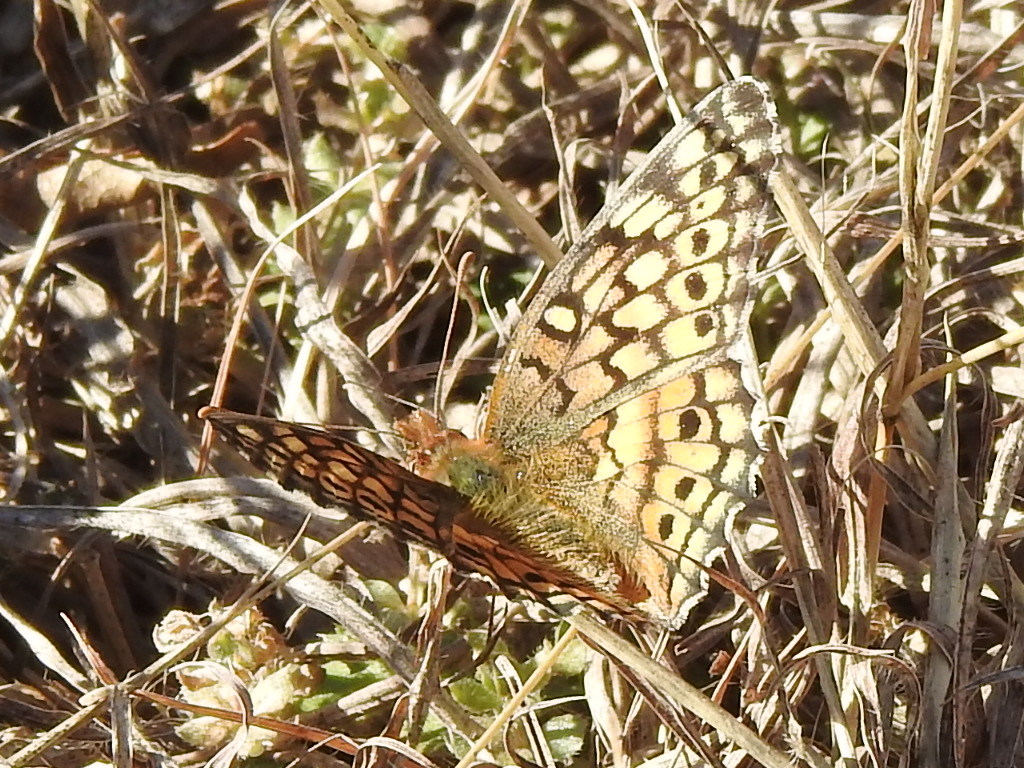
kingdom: Animalia
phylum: Arthropoda
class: Insecta
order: Lepidoptera
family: Nymphalidae
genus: Euptoieta
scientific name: Euptoieta claudia
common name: Variegated fritillary
